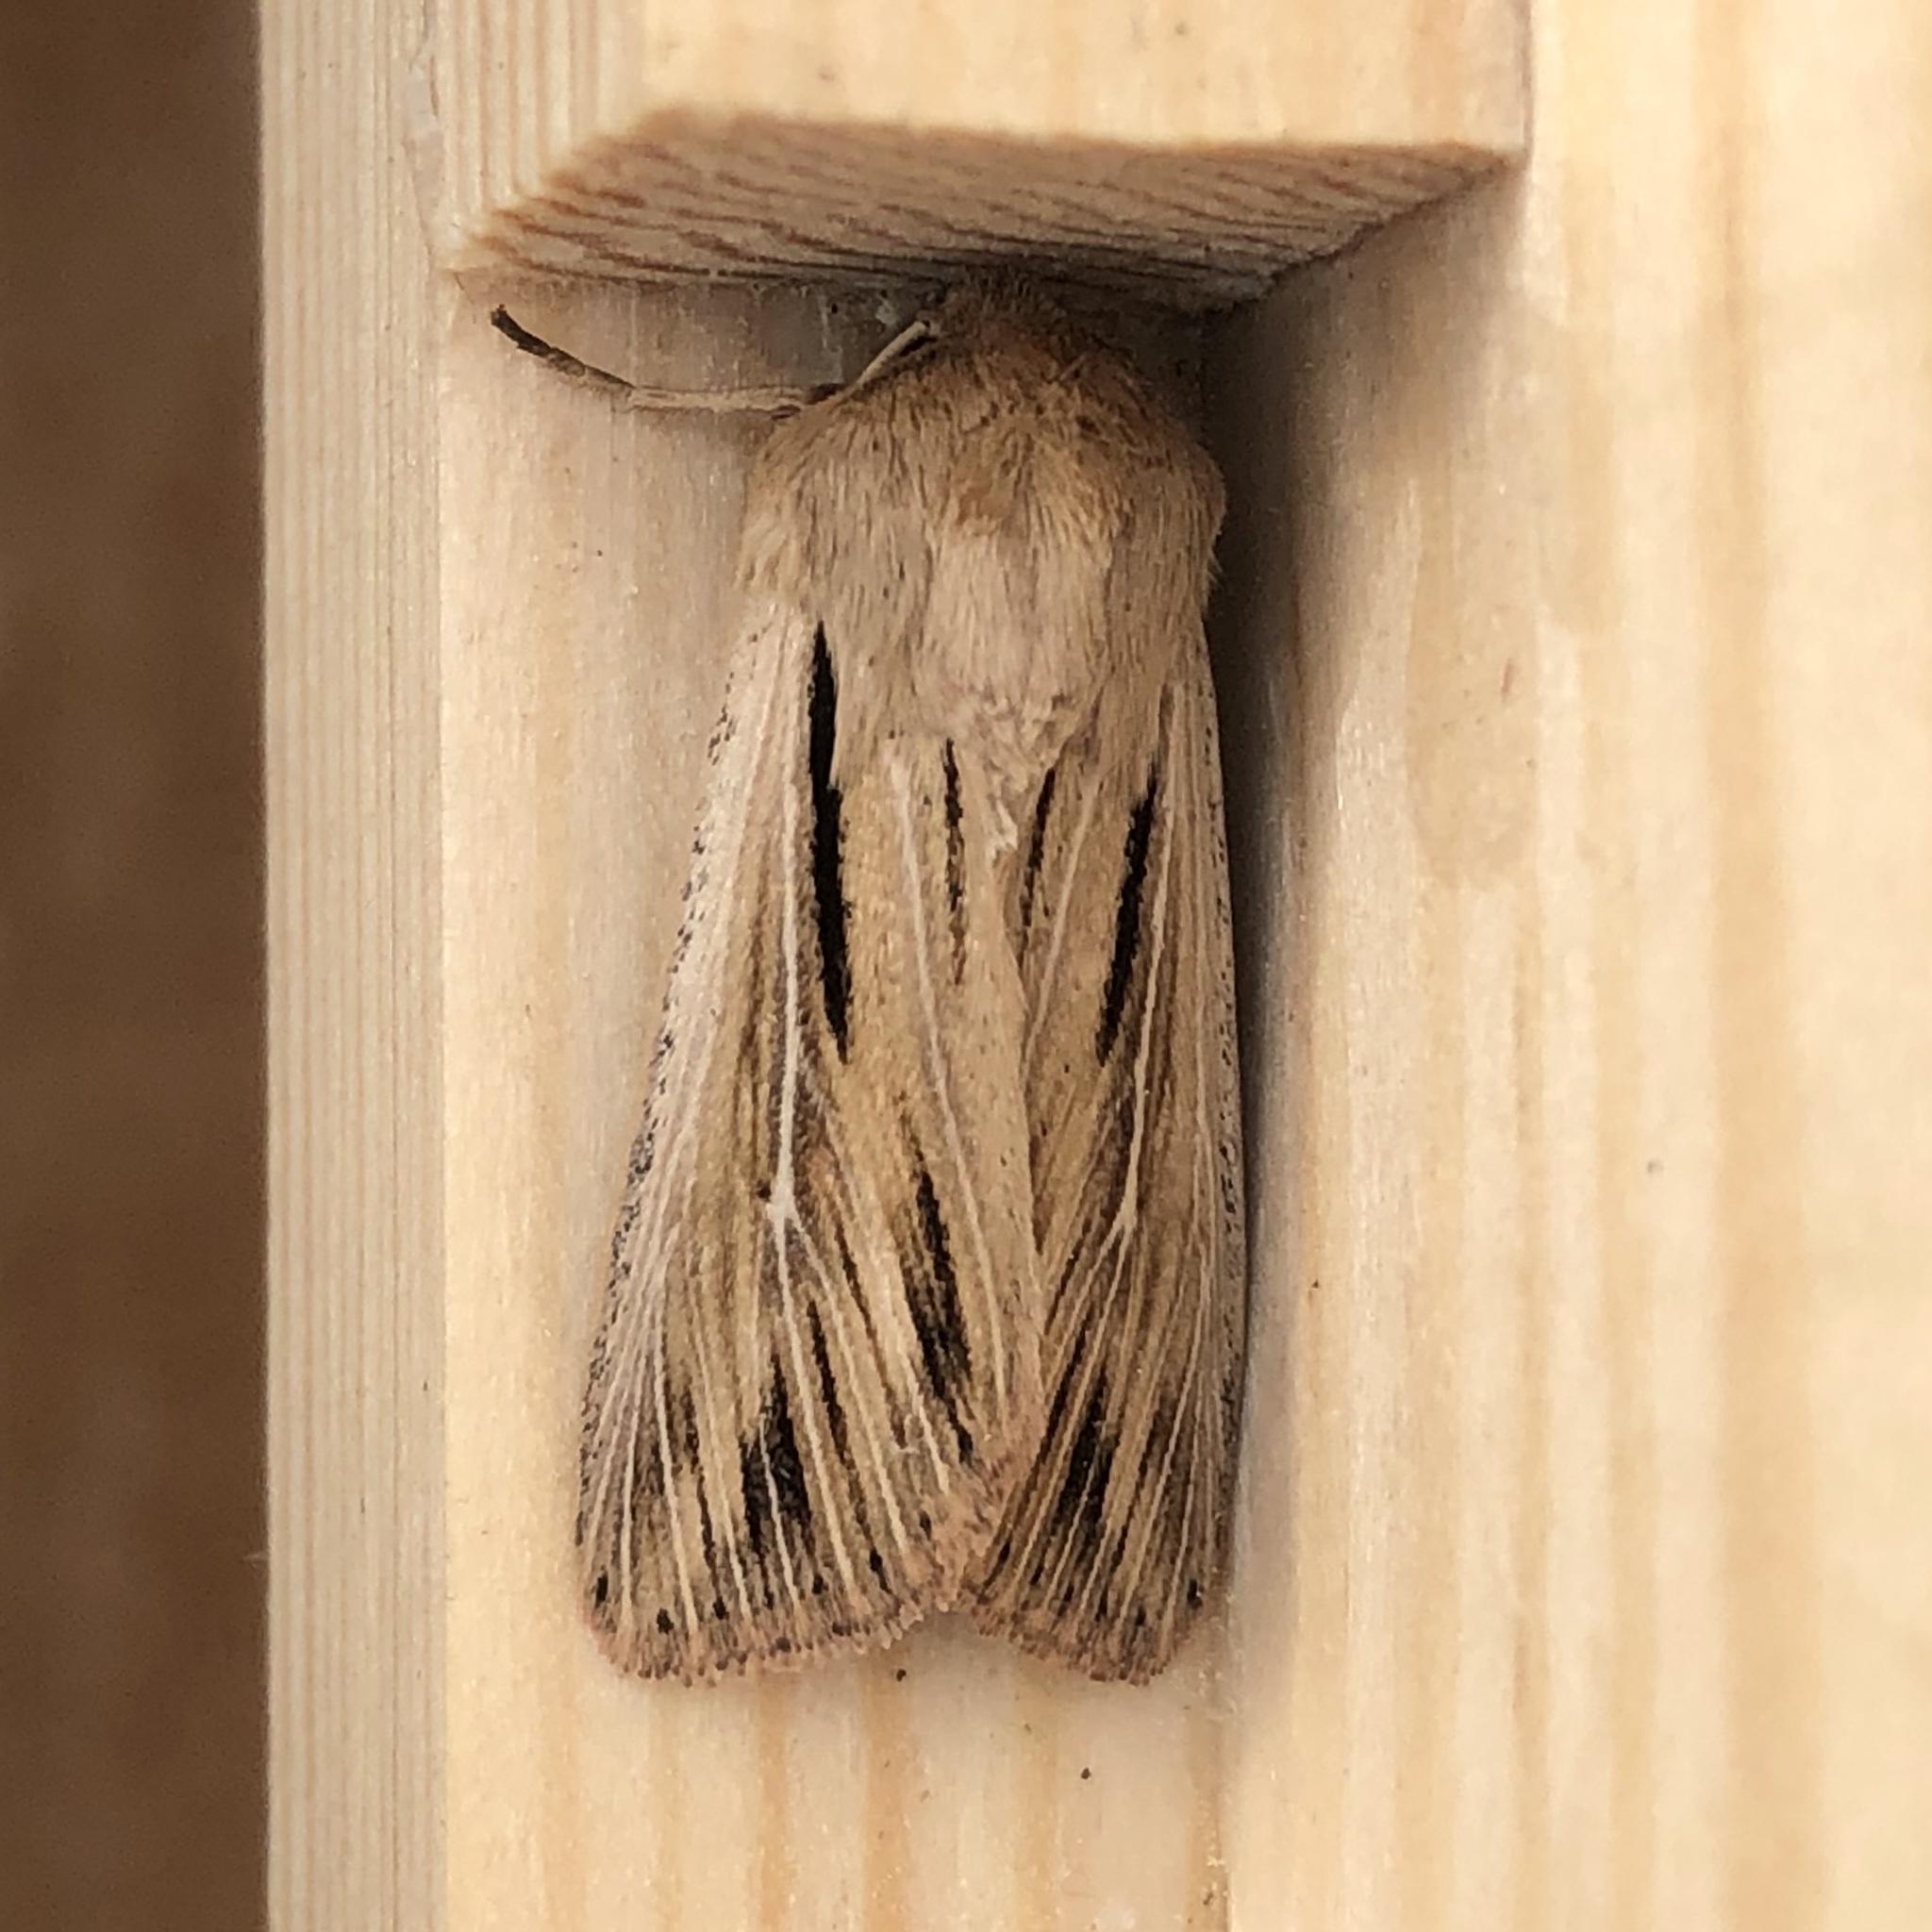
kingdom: Animalia
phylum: Arthropoda
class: Insecta
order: Lepidoptera
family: Noctuidae
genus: Leucania
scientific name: Leucania comma
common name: Shoulder-striped wainscot
